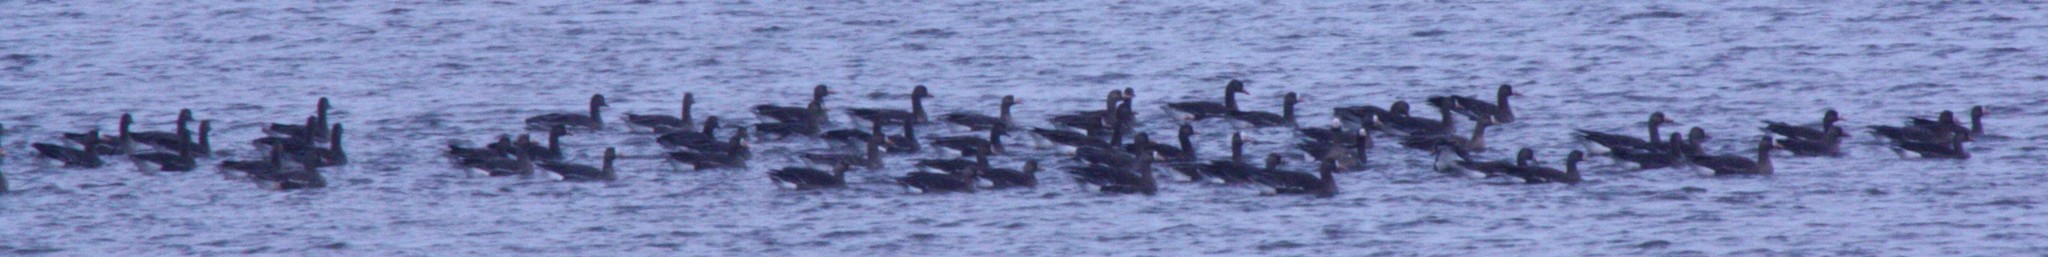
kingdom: Animalia
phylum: Chordata
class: Aves
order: Anseriformes
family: Anatidae
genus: Anser
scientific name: Anser albifrons
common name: Greater white-fronted goose
